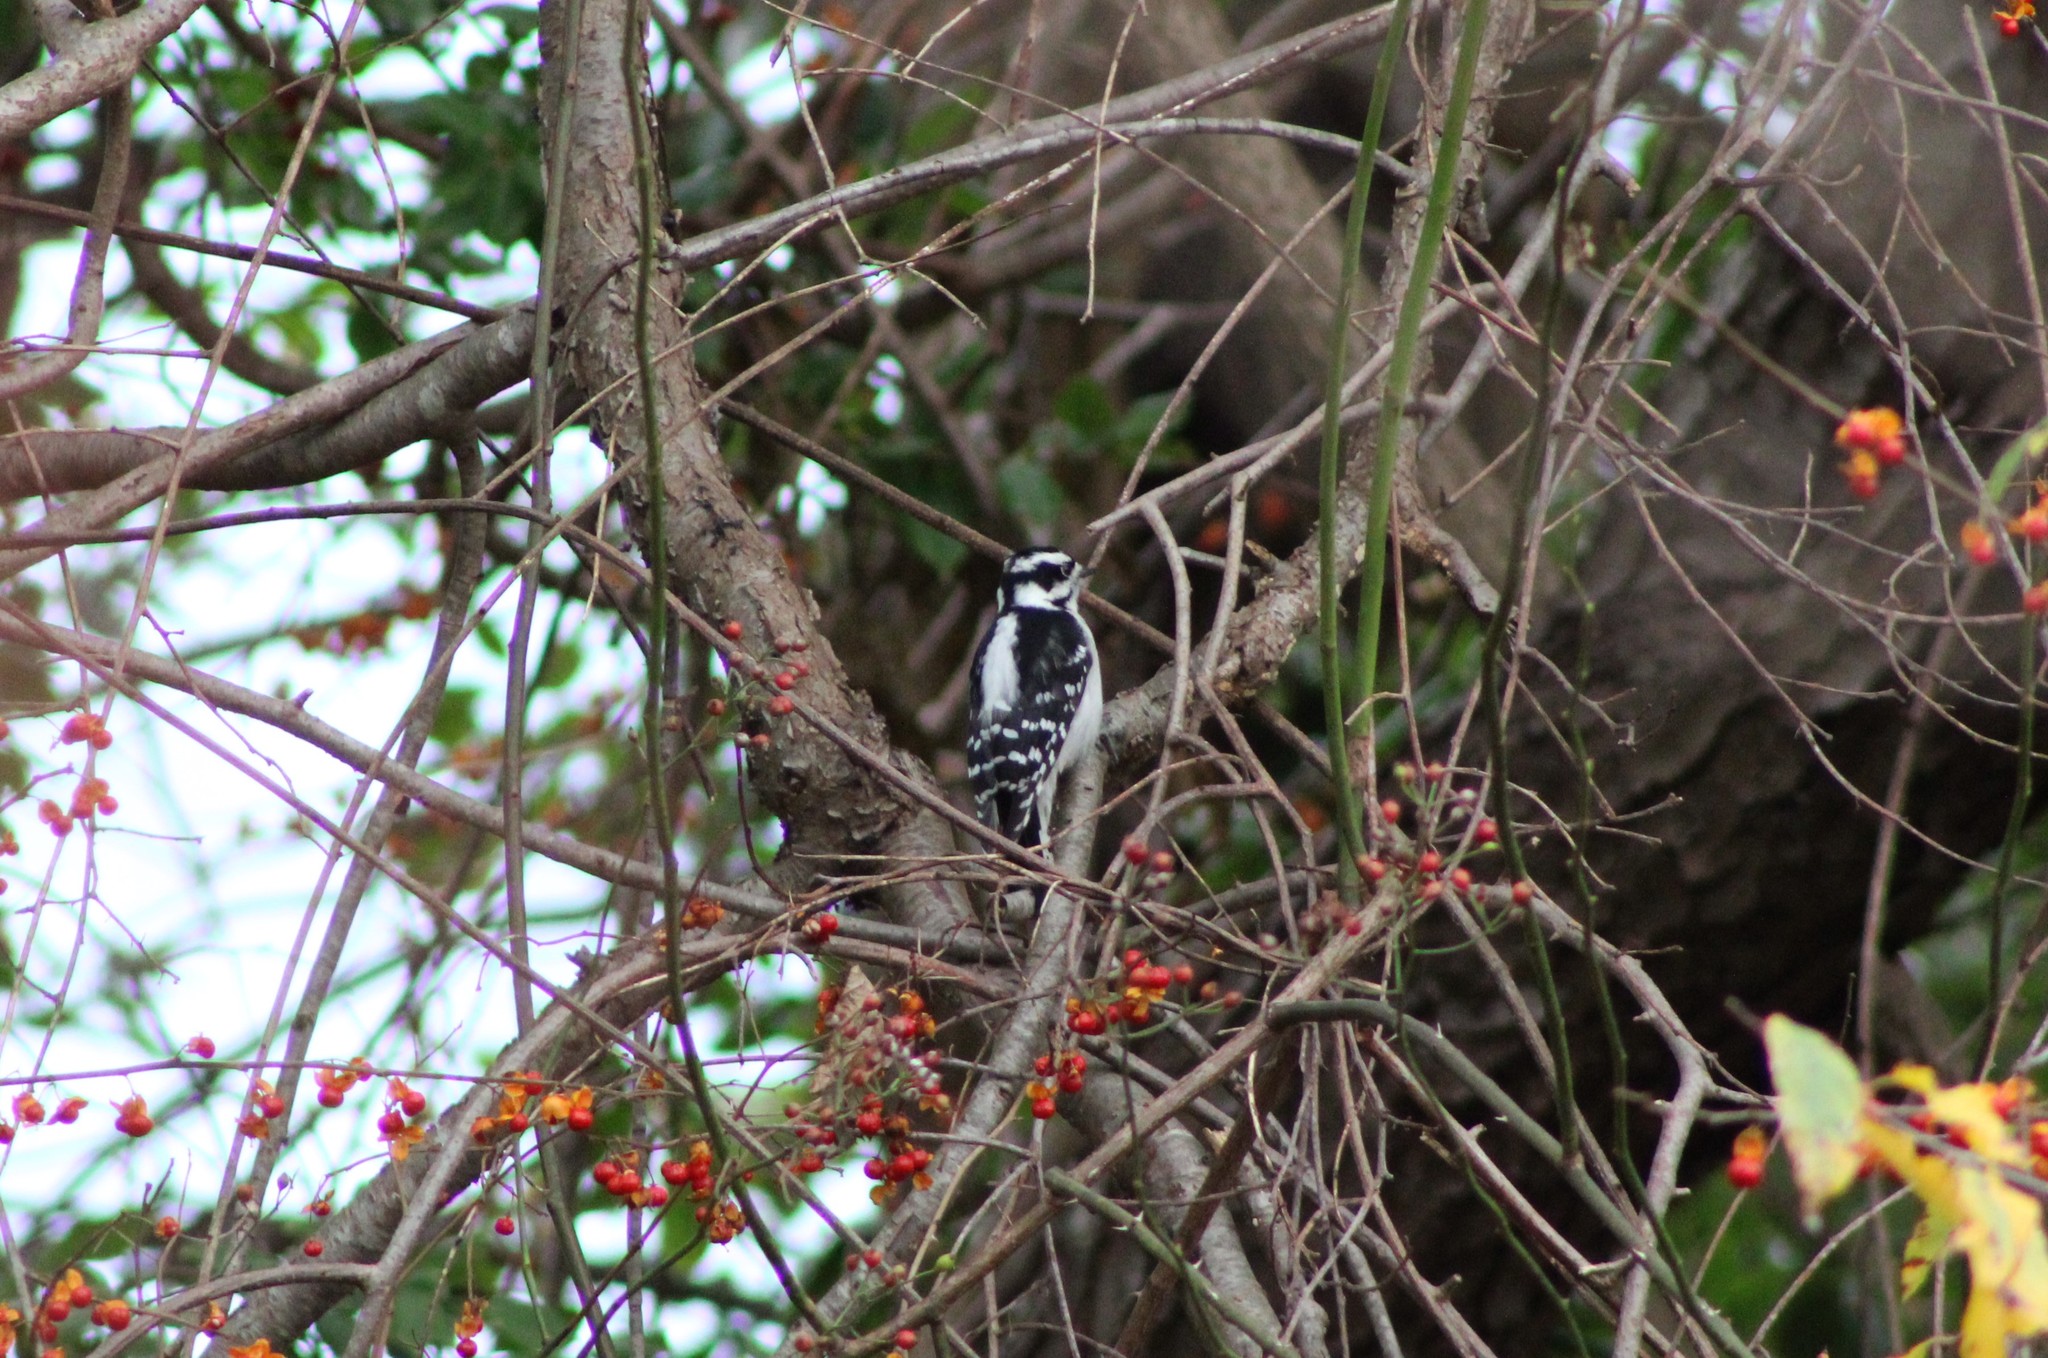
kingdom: Animalia
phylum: Chordata
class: Aves
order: Piciformes
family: Picidae
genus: Dryobates
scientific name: Dryobates pubescens
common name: Downy woodpecker
